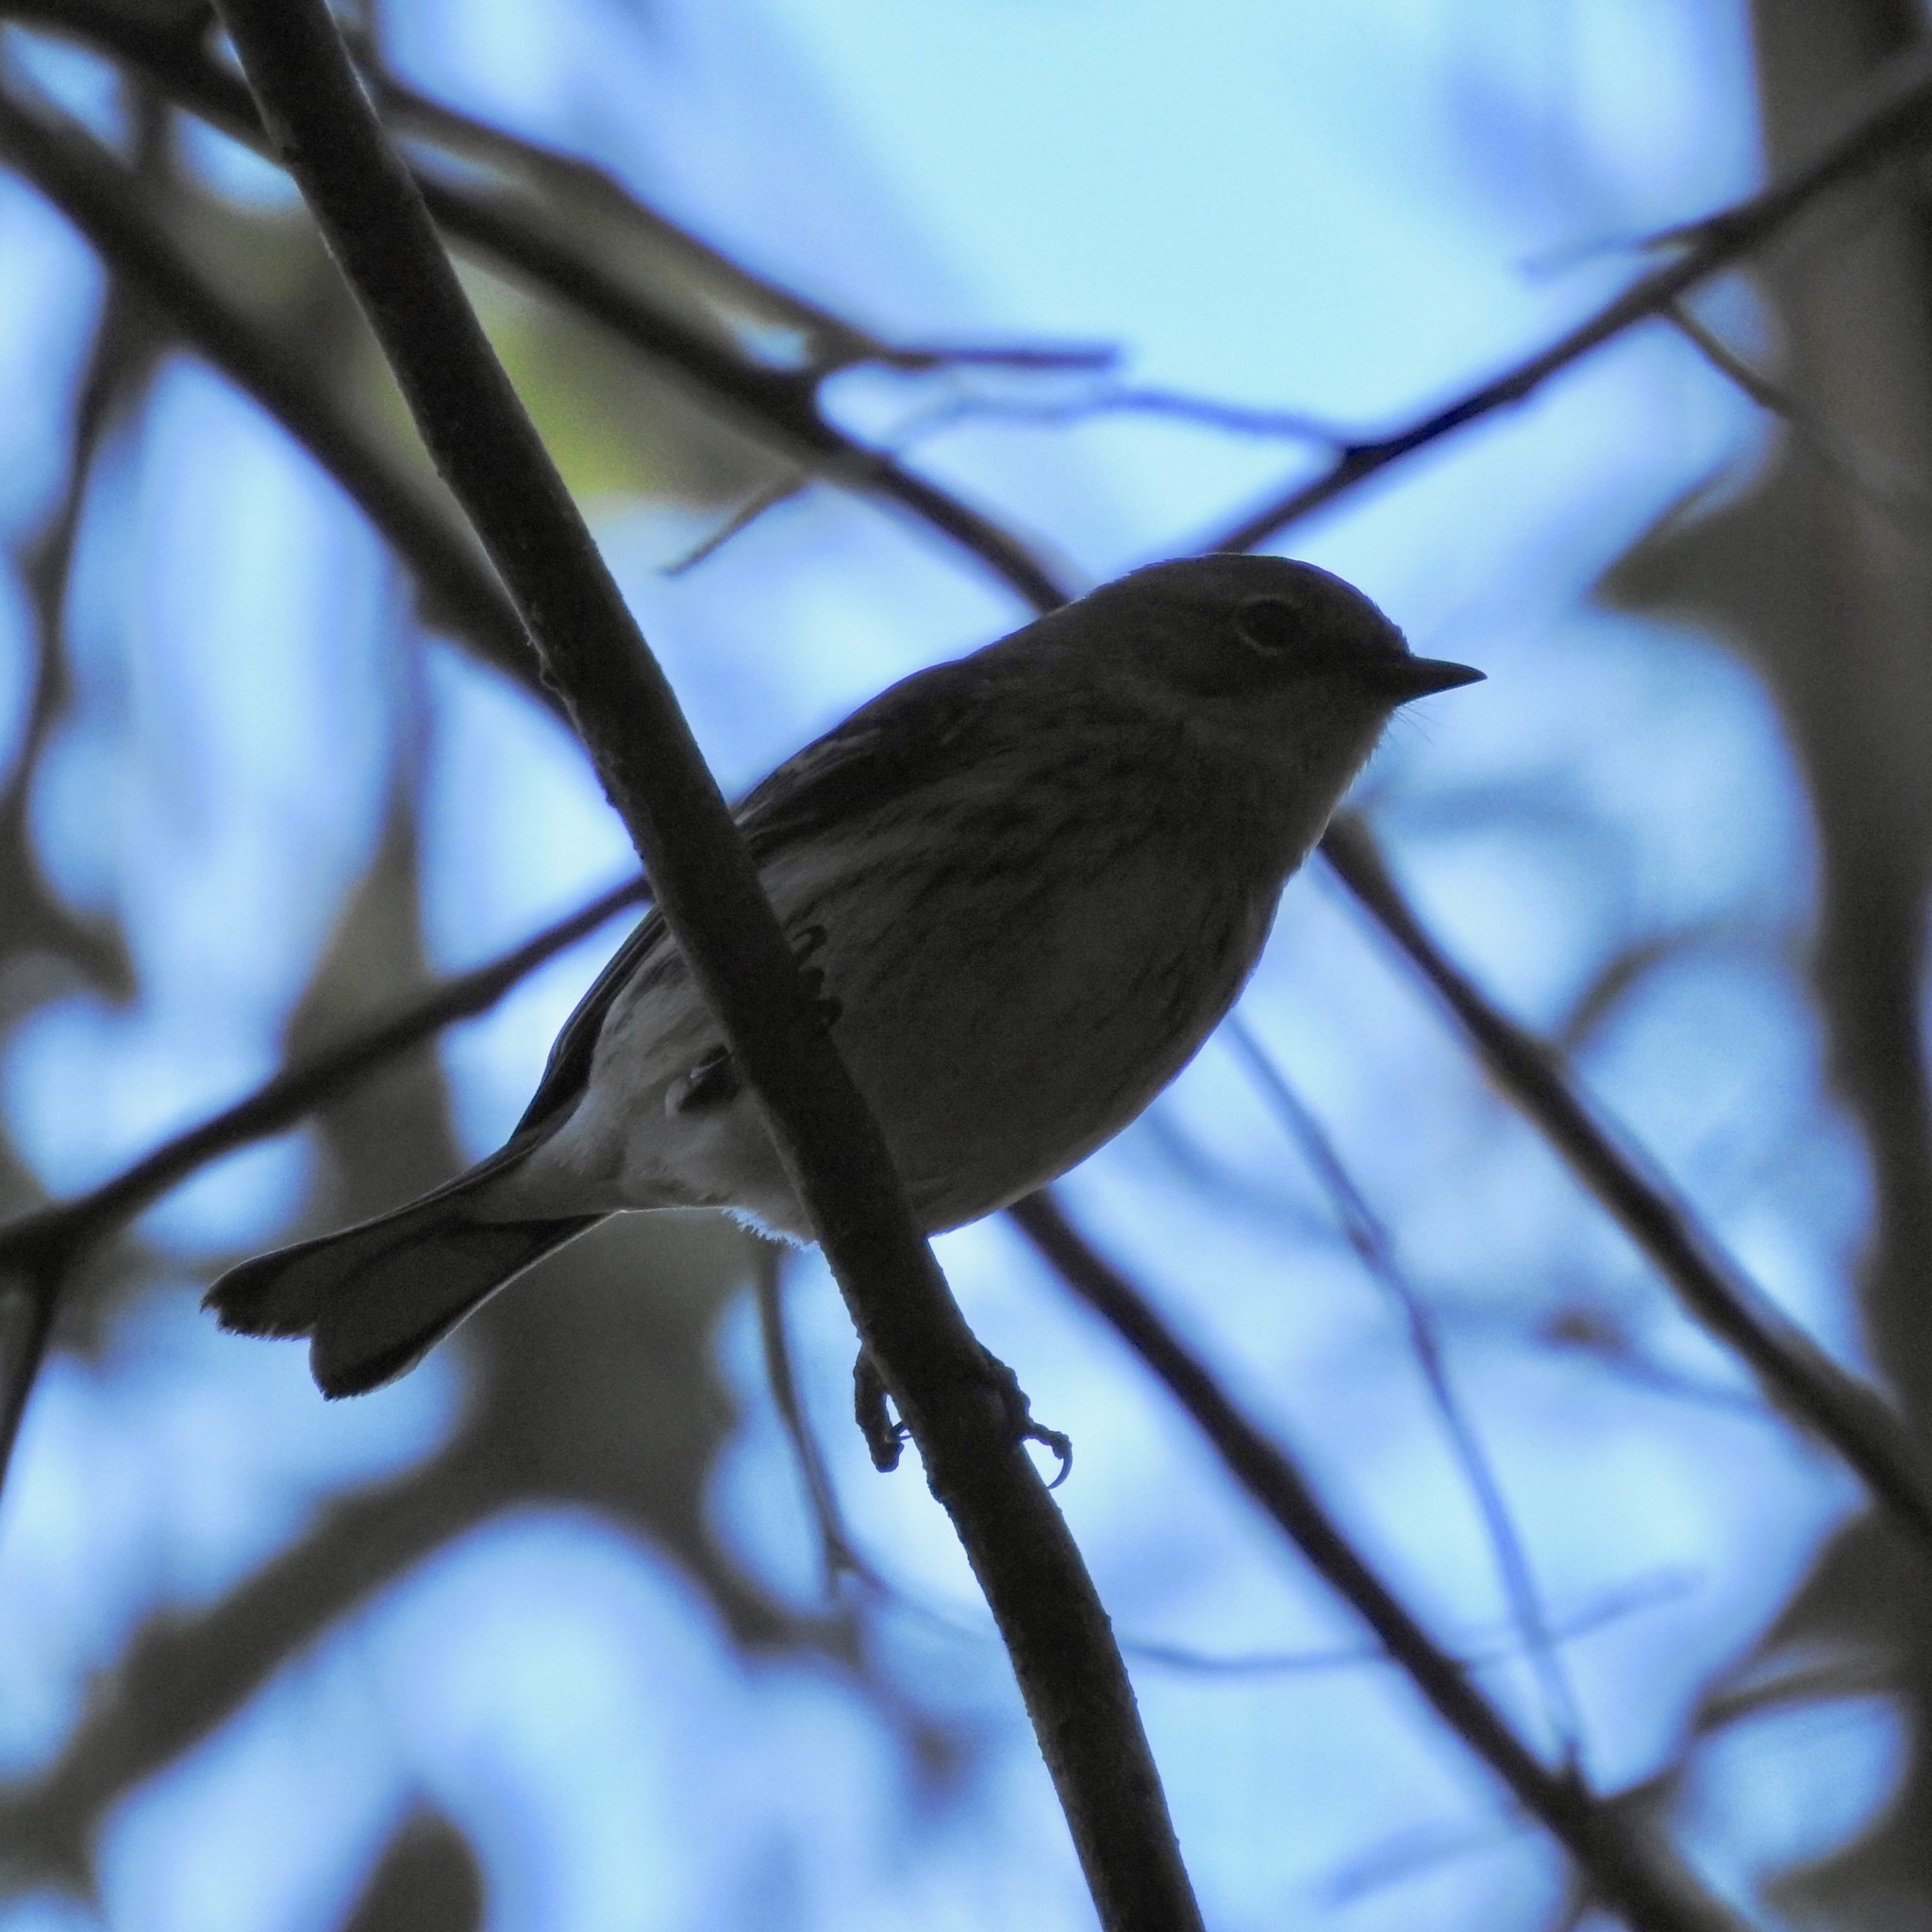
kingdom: Animalia
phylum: Chordata
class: Aves
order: Passeriformes
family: Parulidae
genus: Setophaga
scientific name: Setophaga coronata
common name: Myrtle warbler
